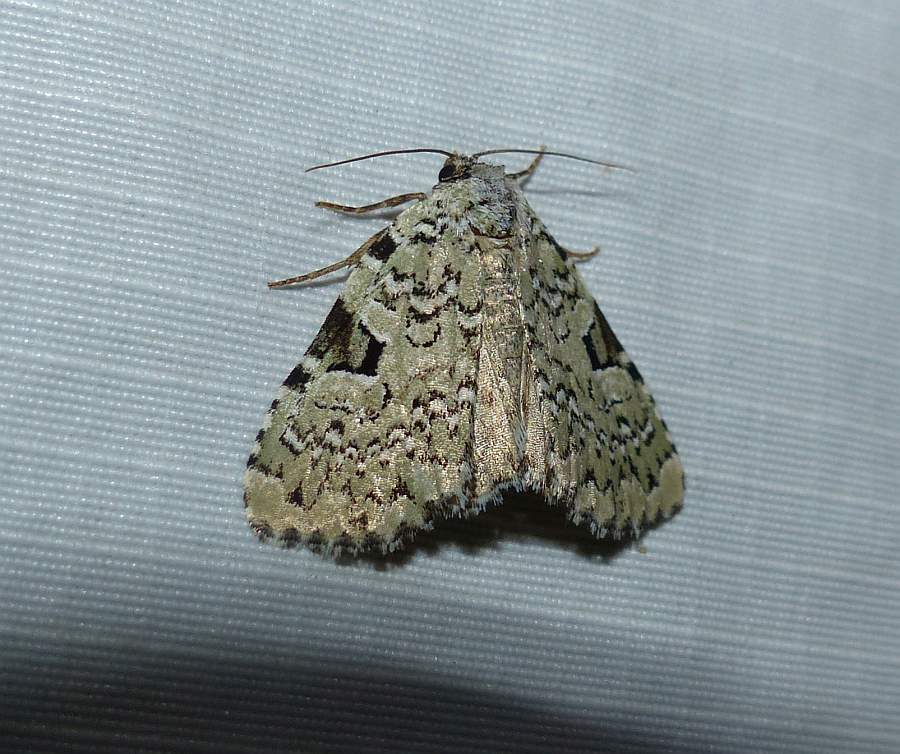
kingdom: Animalia
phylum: Arthropoda
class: Insecta
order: Lepidoptera
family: Noctuidae
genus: Leuconycta
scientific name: Leuconycta diphteroides
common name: Green leuconycta moth
